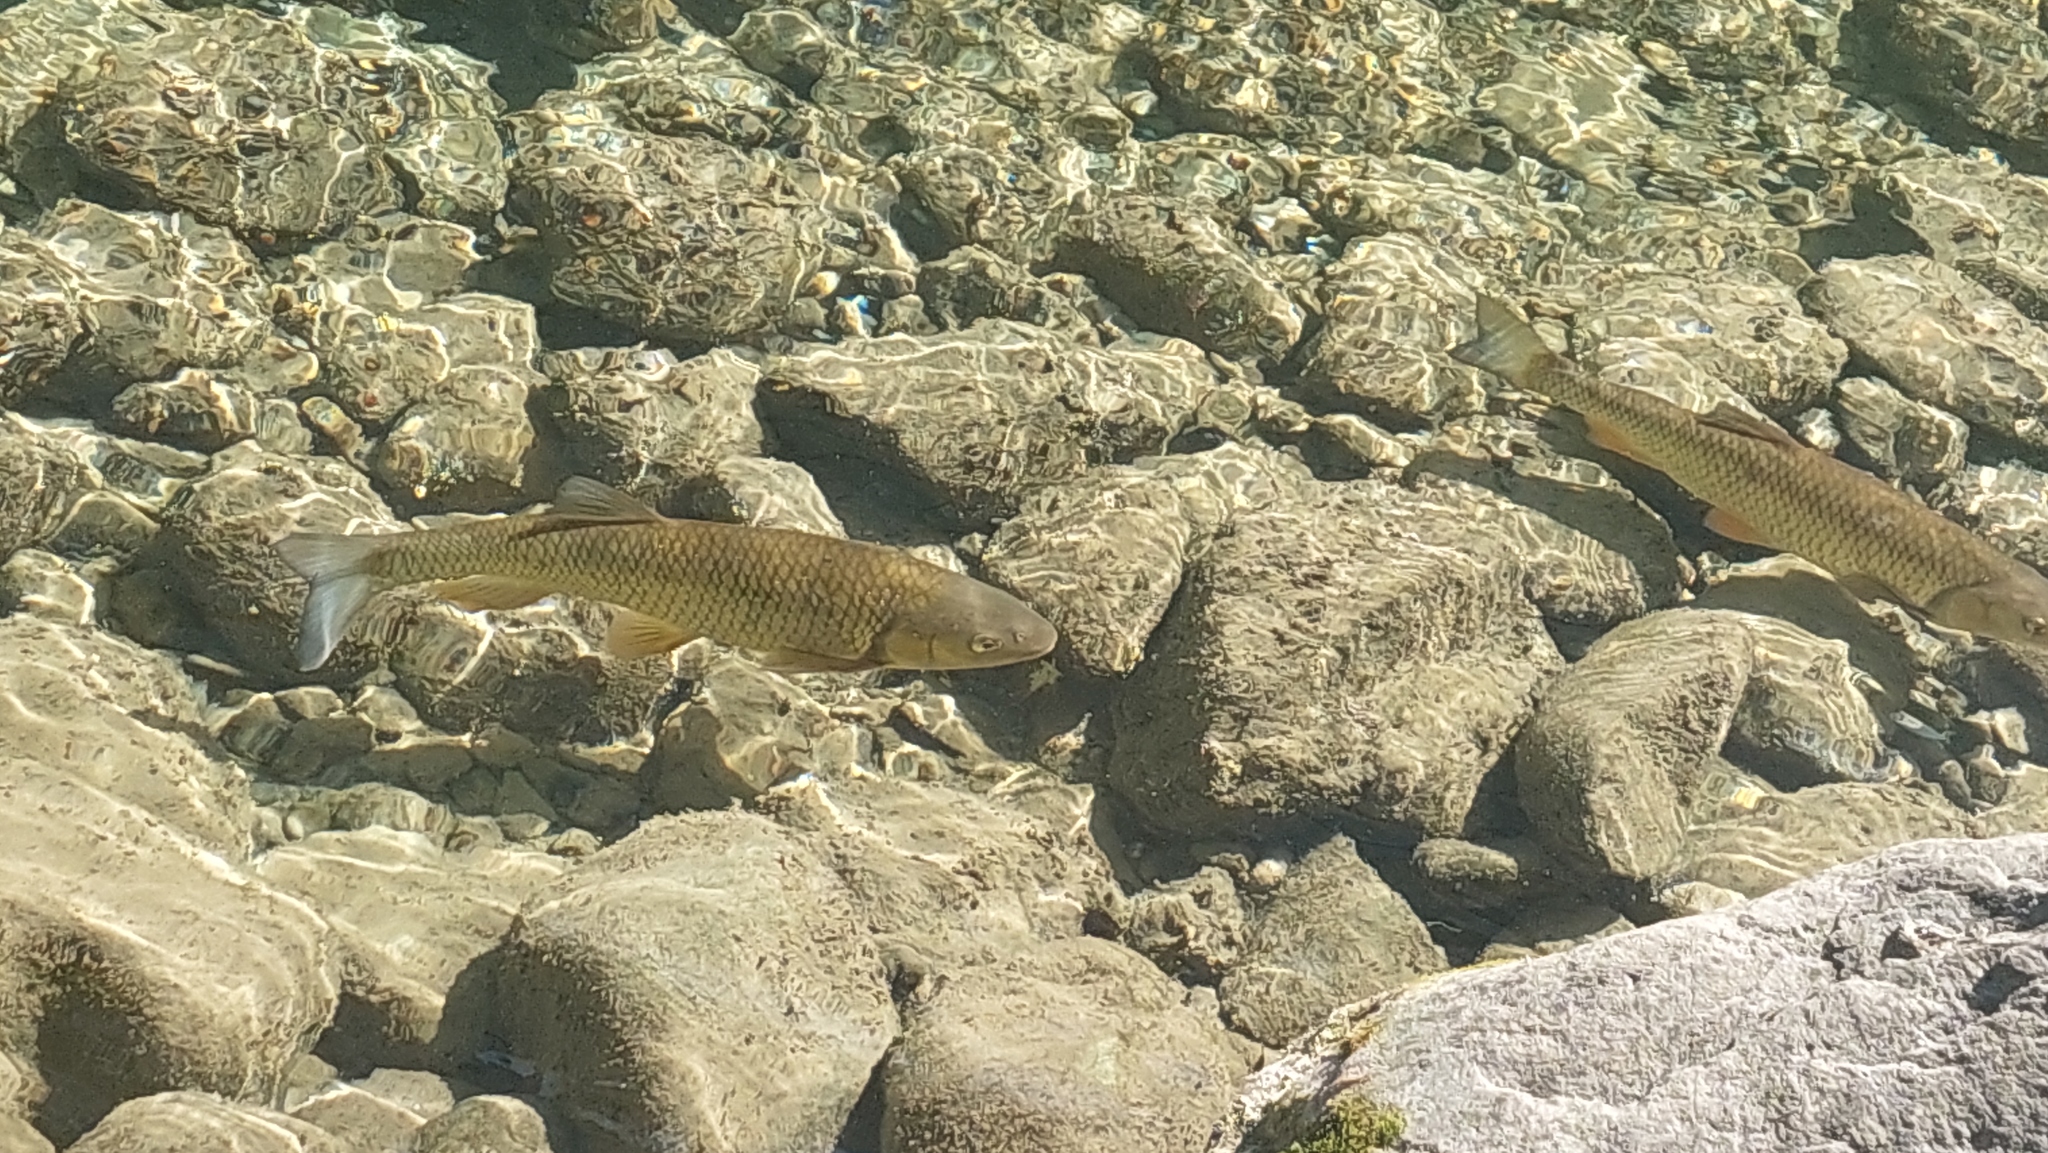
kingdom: Animalia
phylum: Chordata
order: Cypriniformes
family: Cyprinidae
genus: Squalius
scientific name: Squalius cephalus
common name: Chub
